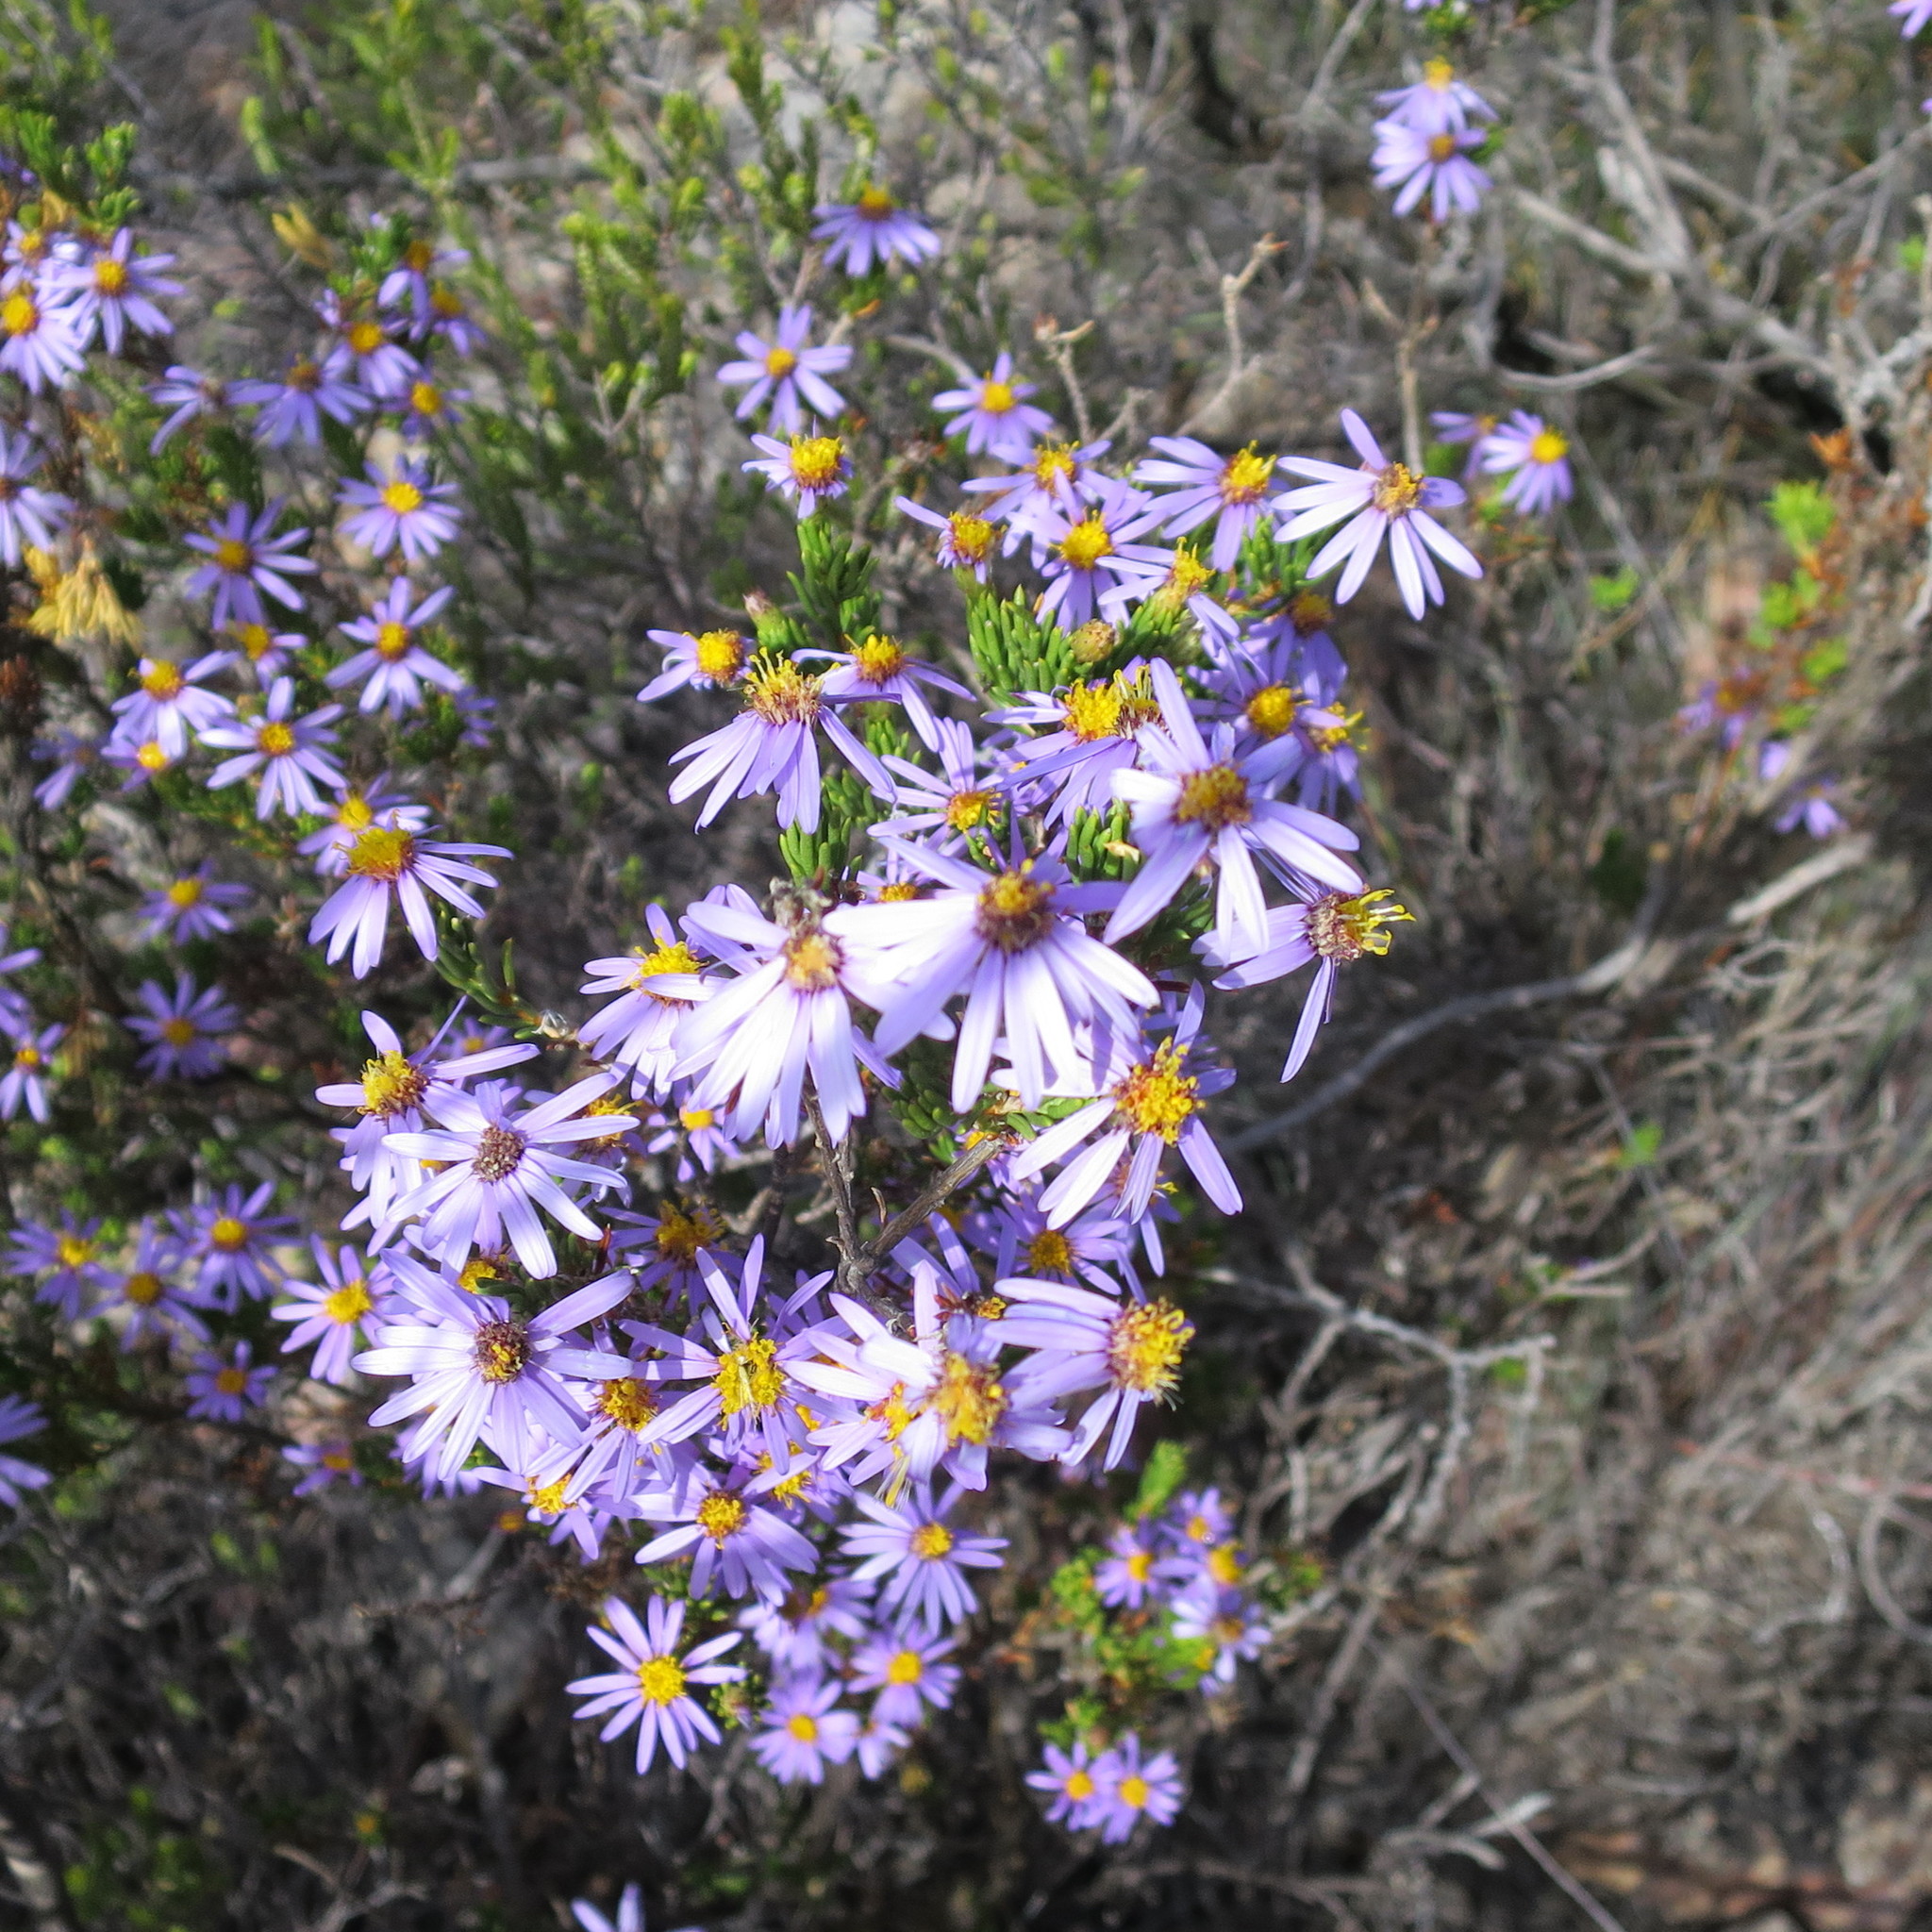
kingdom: Plantae
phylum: Tracheophyta
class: Magnoliopsida
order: Asterales
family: Asteraceae
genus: Felicia
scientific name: Felicia filifolia
